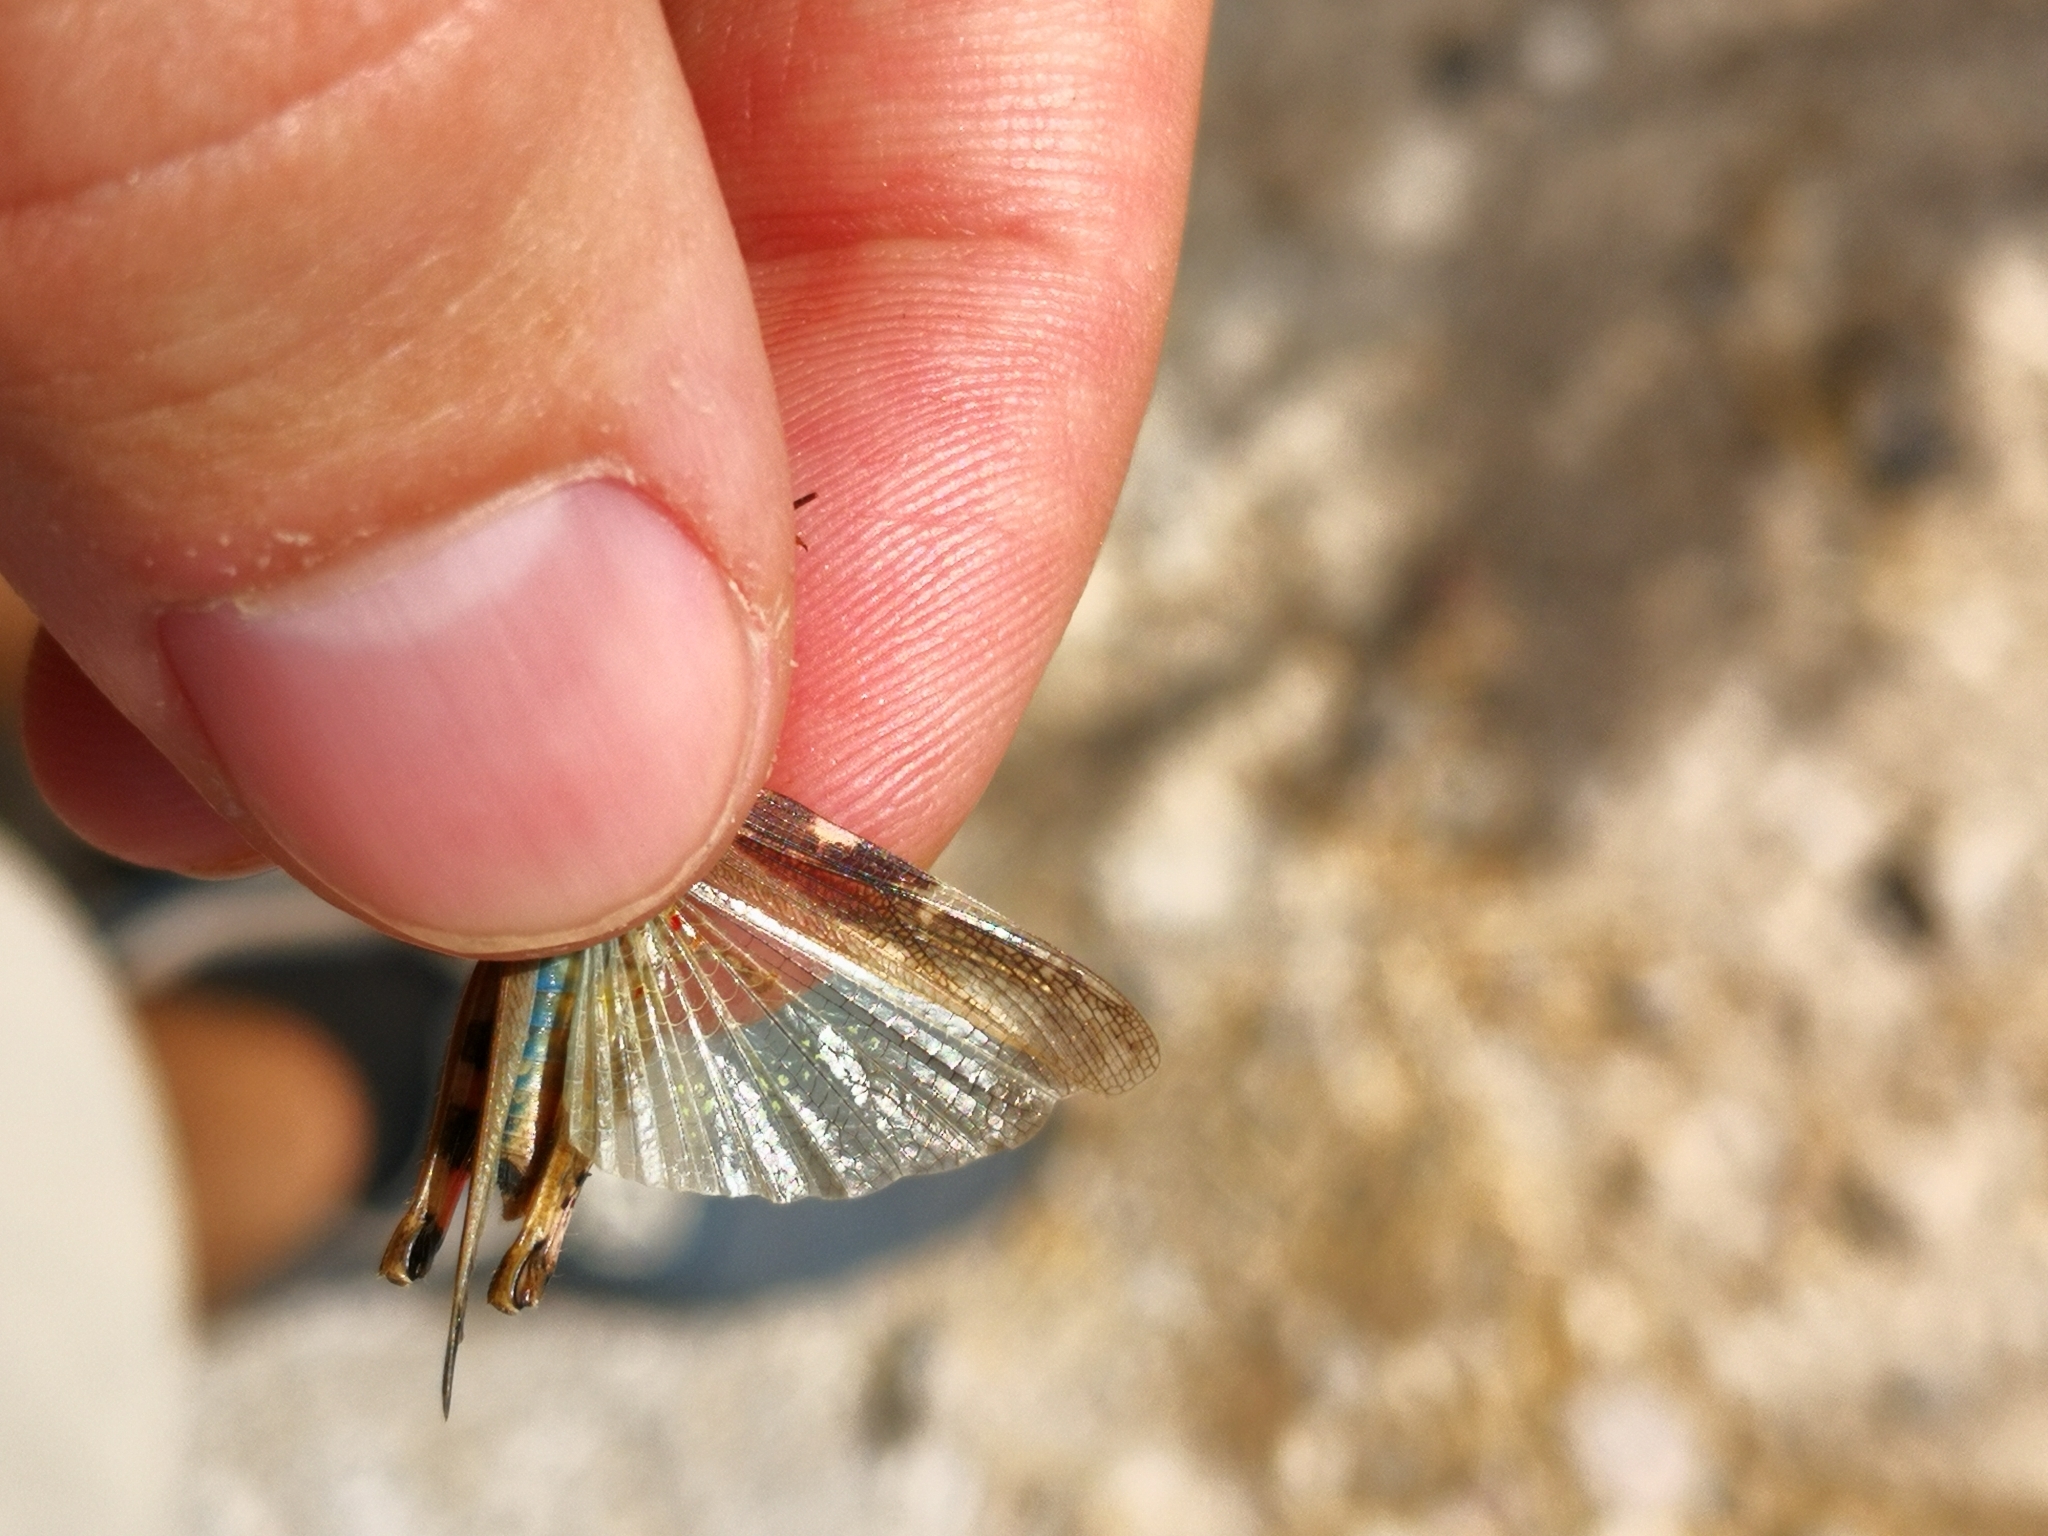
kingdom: Animalia
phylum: Arthropoda
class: Insecta
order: Orthoptera
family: Acrididae
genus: Aiolopus
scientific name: Aiolopus strepens
